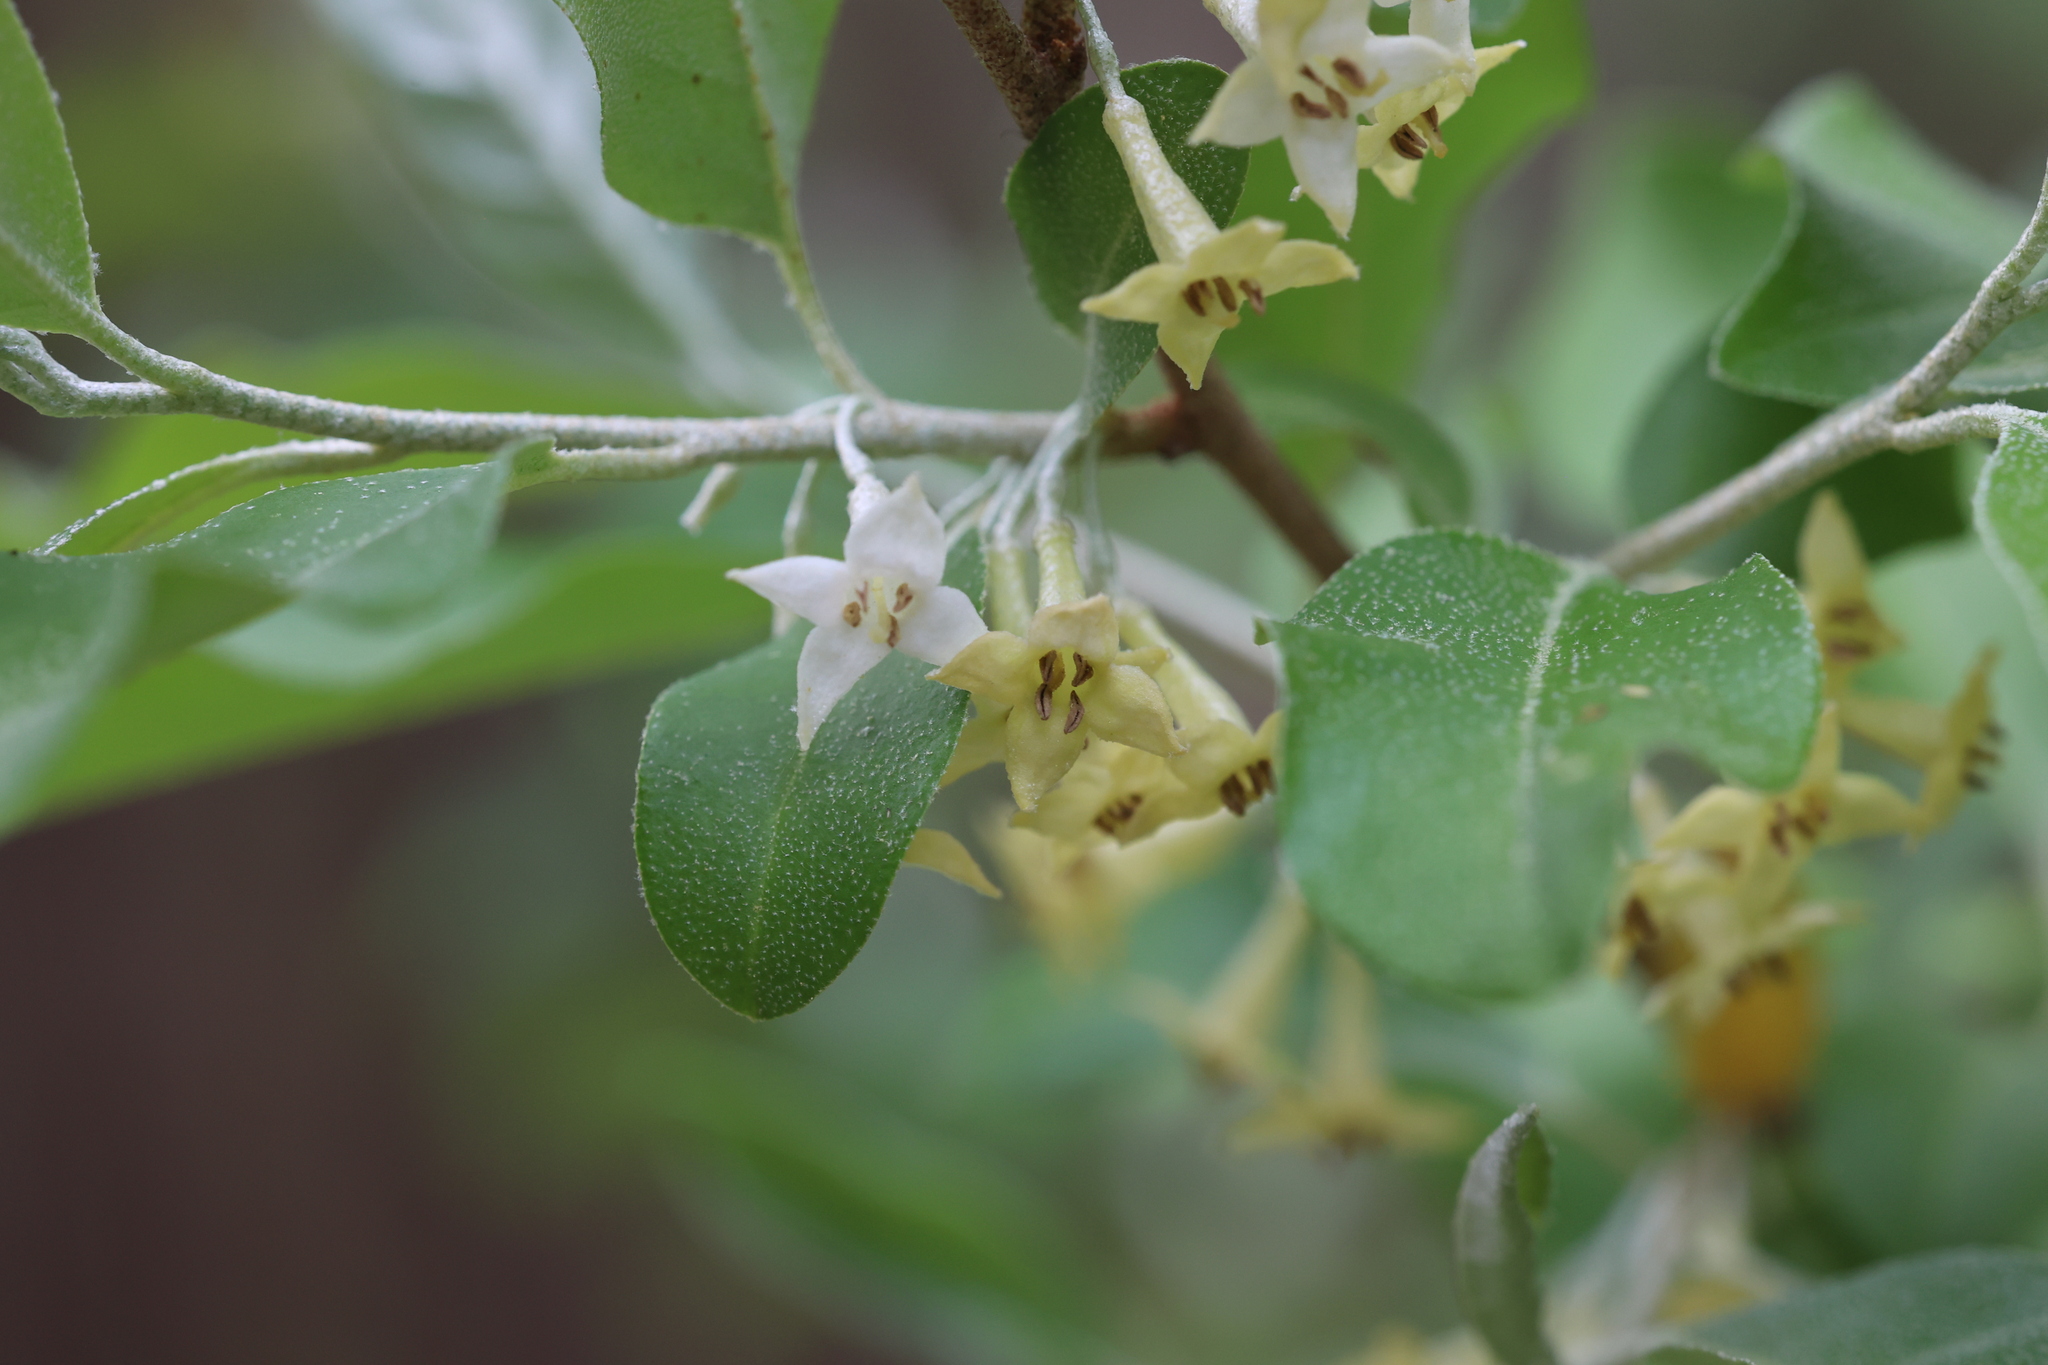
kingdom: Plantae
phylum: Tracheophyta
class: Magnoliopsida
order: Rosales
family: Elaeagnaceae
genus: Elaeagnus
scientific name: Elaeagnus umbellata
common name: Autumn olive
